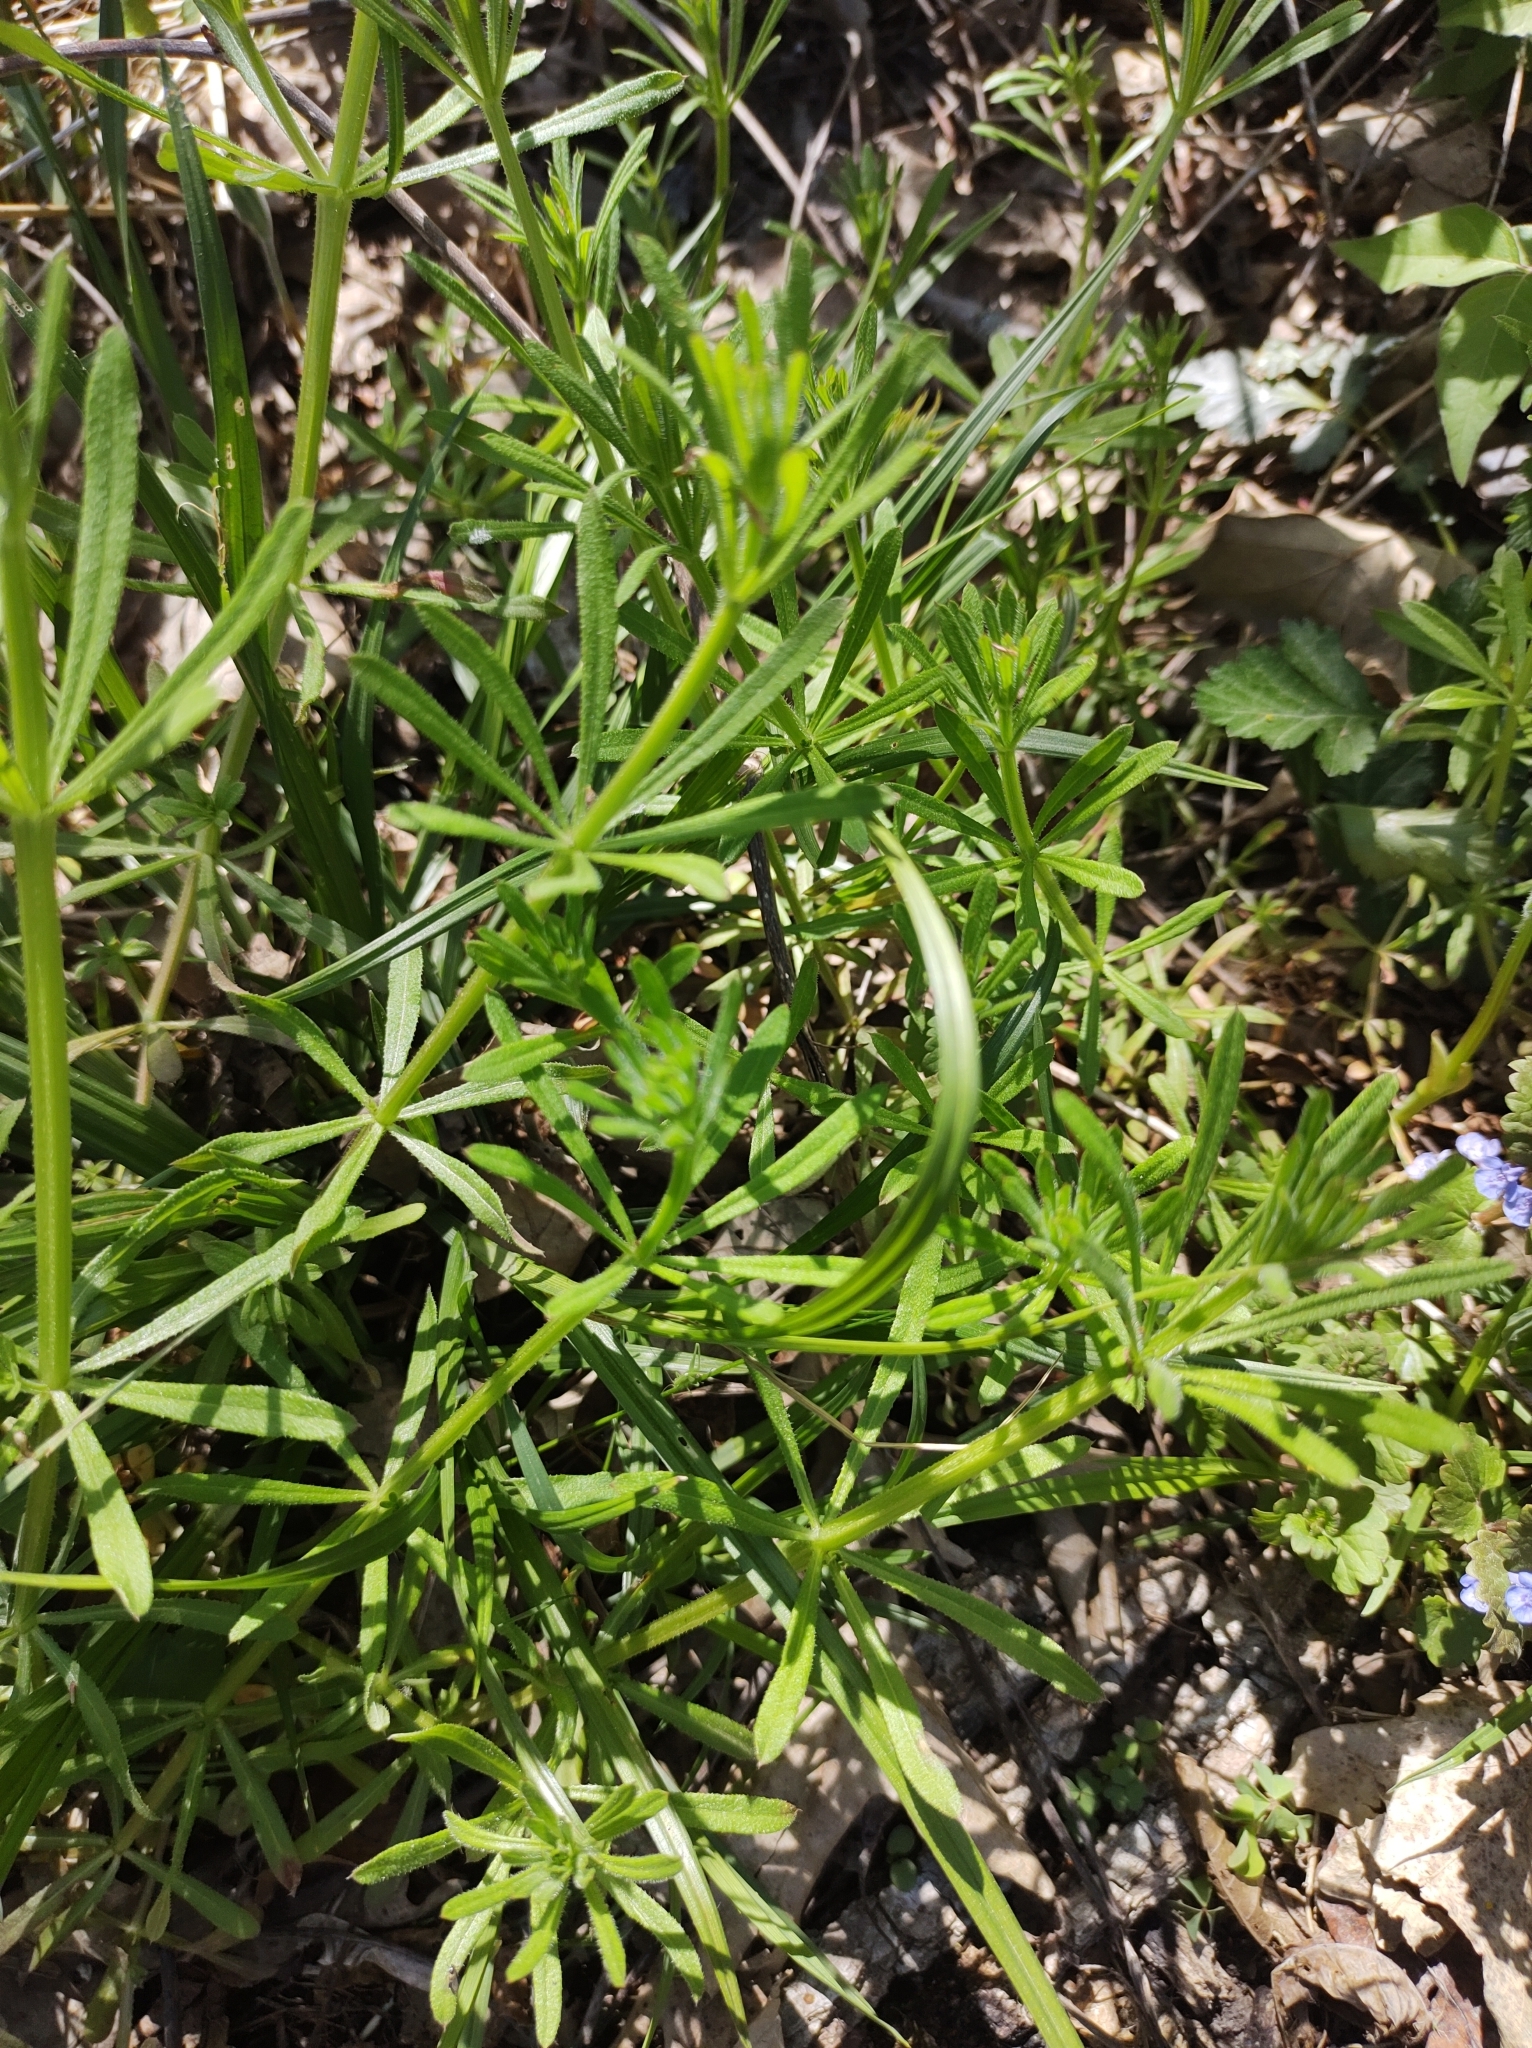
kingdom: Plantae
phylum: Tracheophyta
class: Magnoliopsida
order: Gentianales
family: Rubiaceae
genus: Galium
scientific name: Galium aparine
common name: Cleavers
